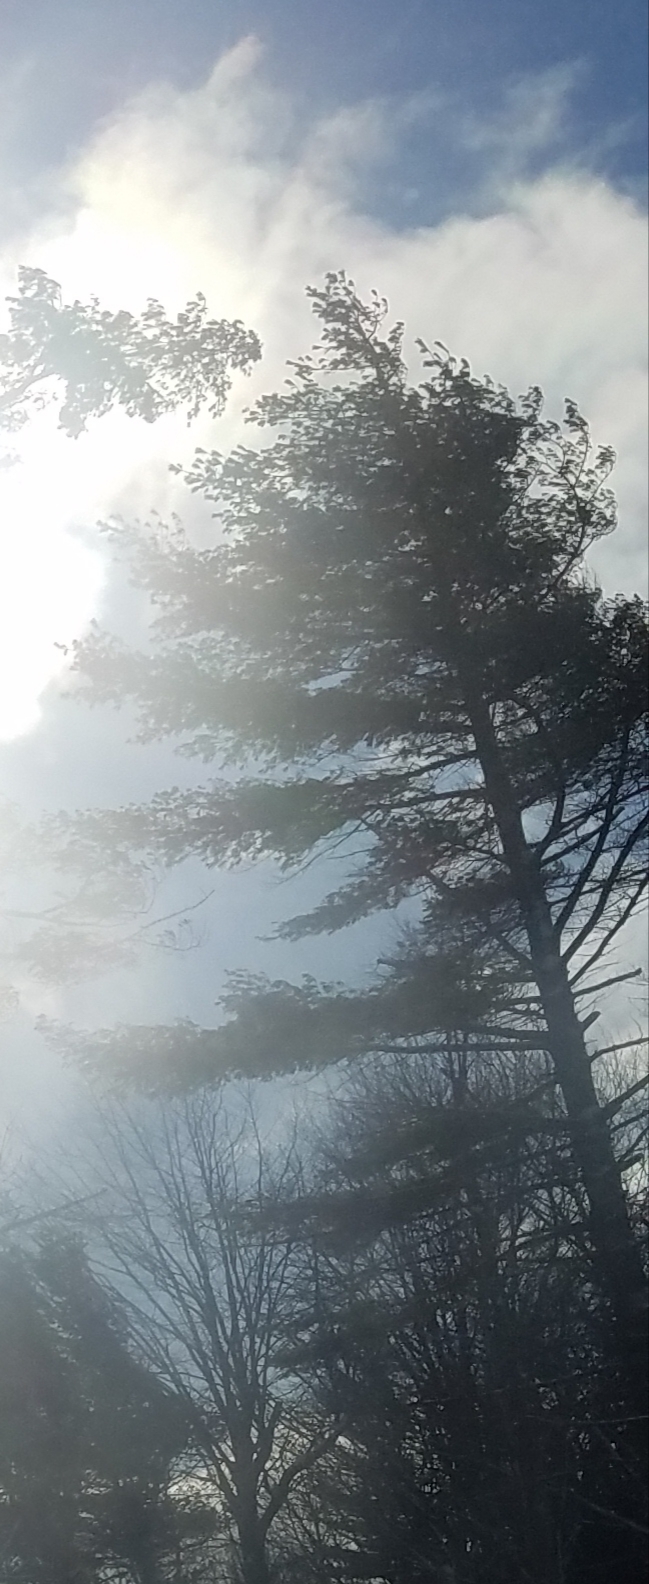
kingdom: Plantae
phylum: Tracheophyta
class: Pinopsida
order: Pinales
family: Pinaceae
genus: Pinus
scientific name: Pinus strobus
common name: Weymouth pine
